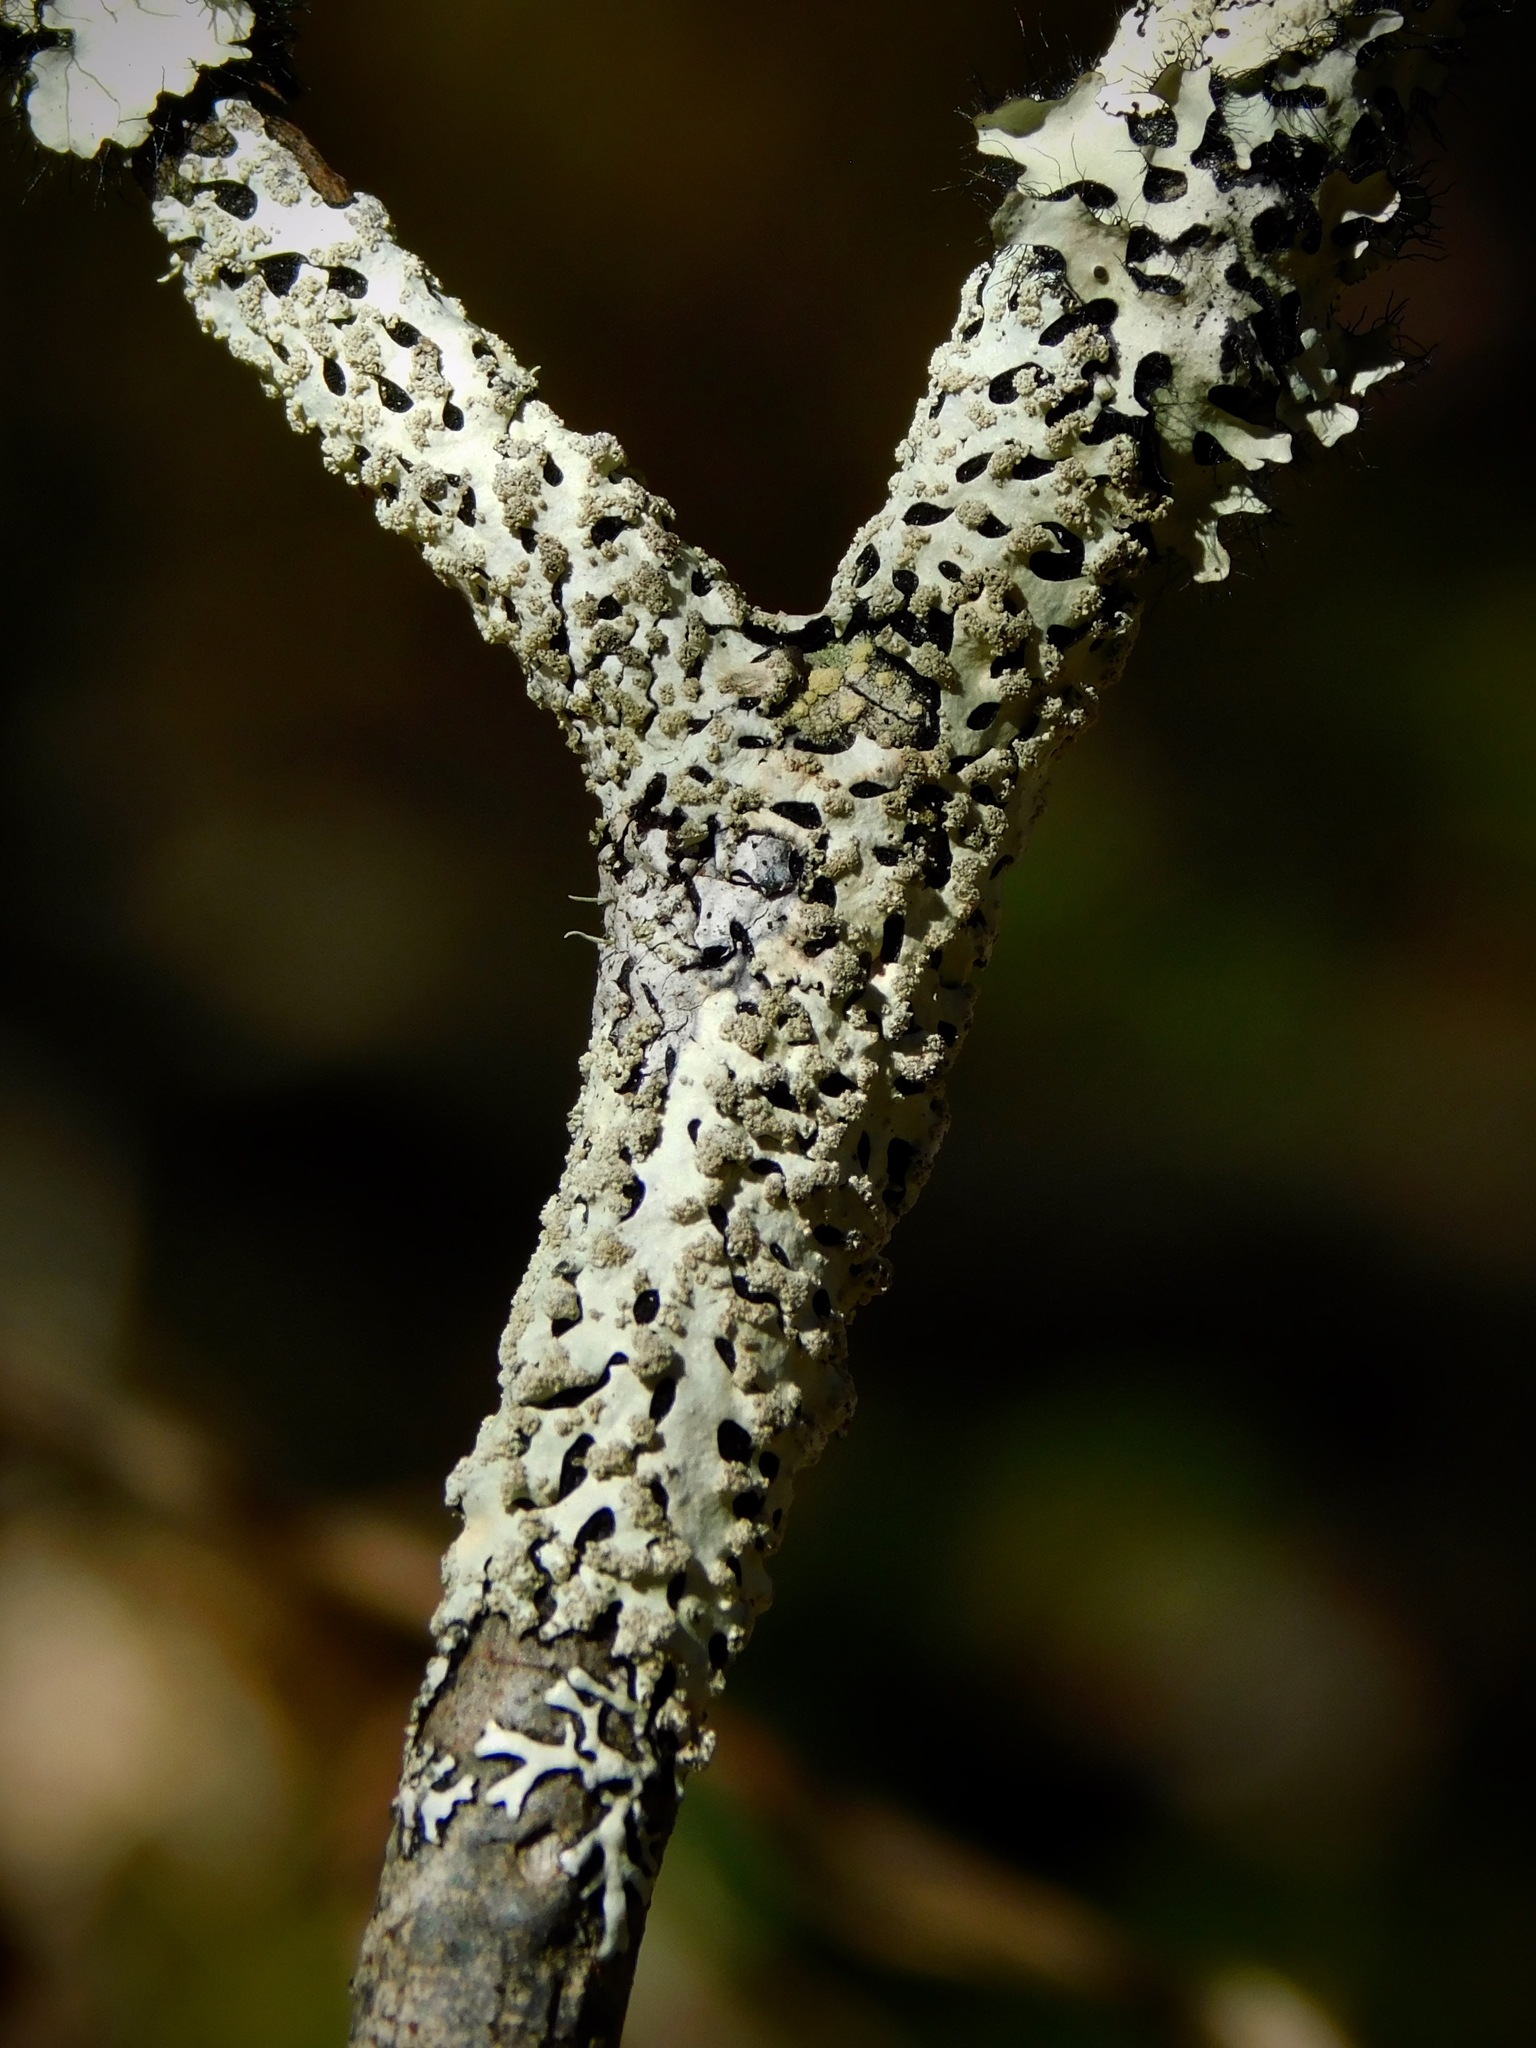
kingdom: Fungi
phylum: Ascomycota
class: Lecanoromycetes
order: Lecanorales
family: Parmeliaceae
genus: Hypotrachyna
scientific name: Hypotrachyna lividescens
